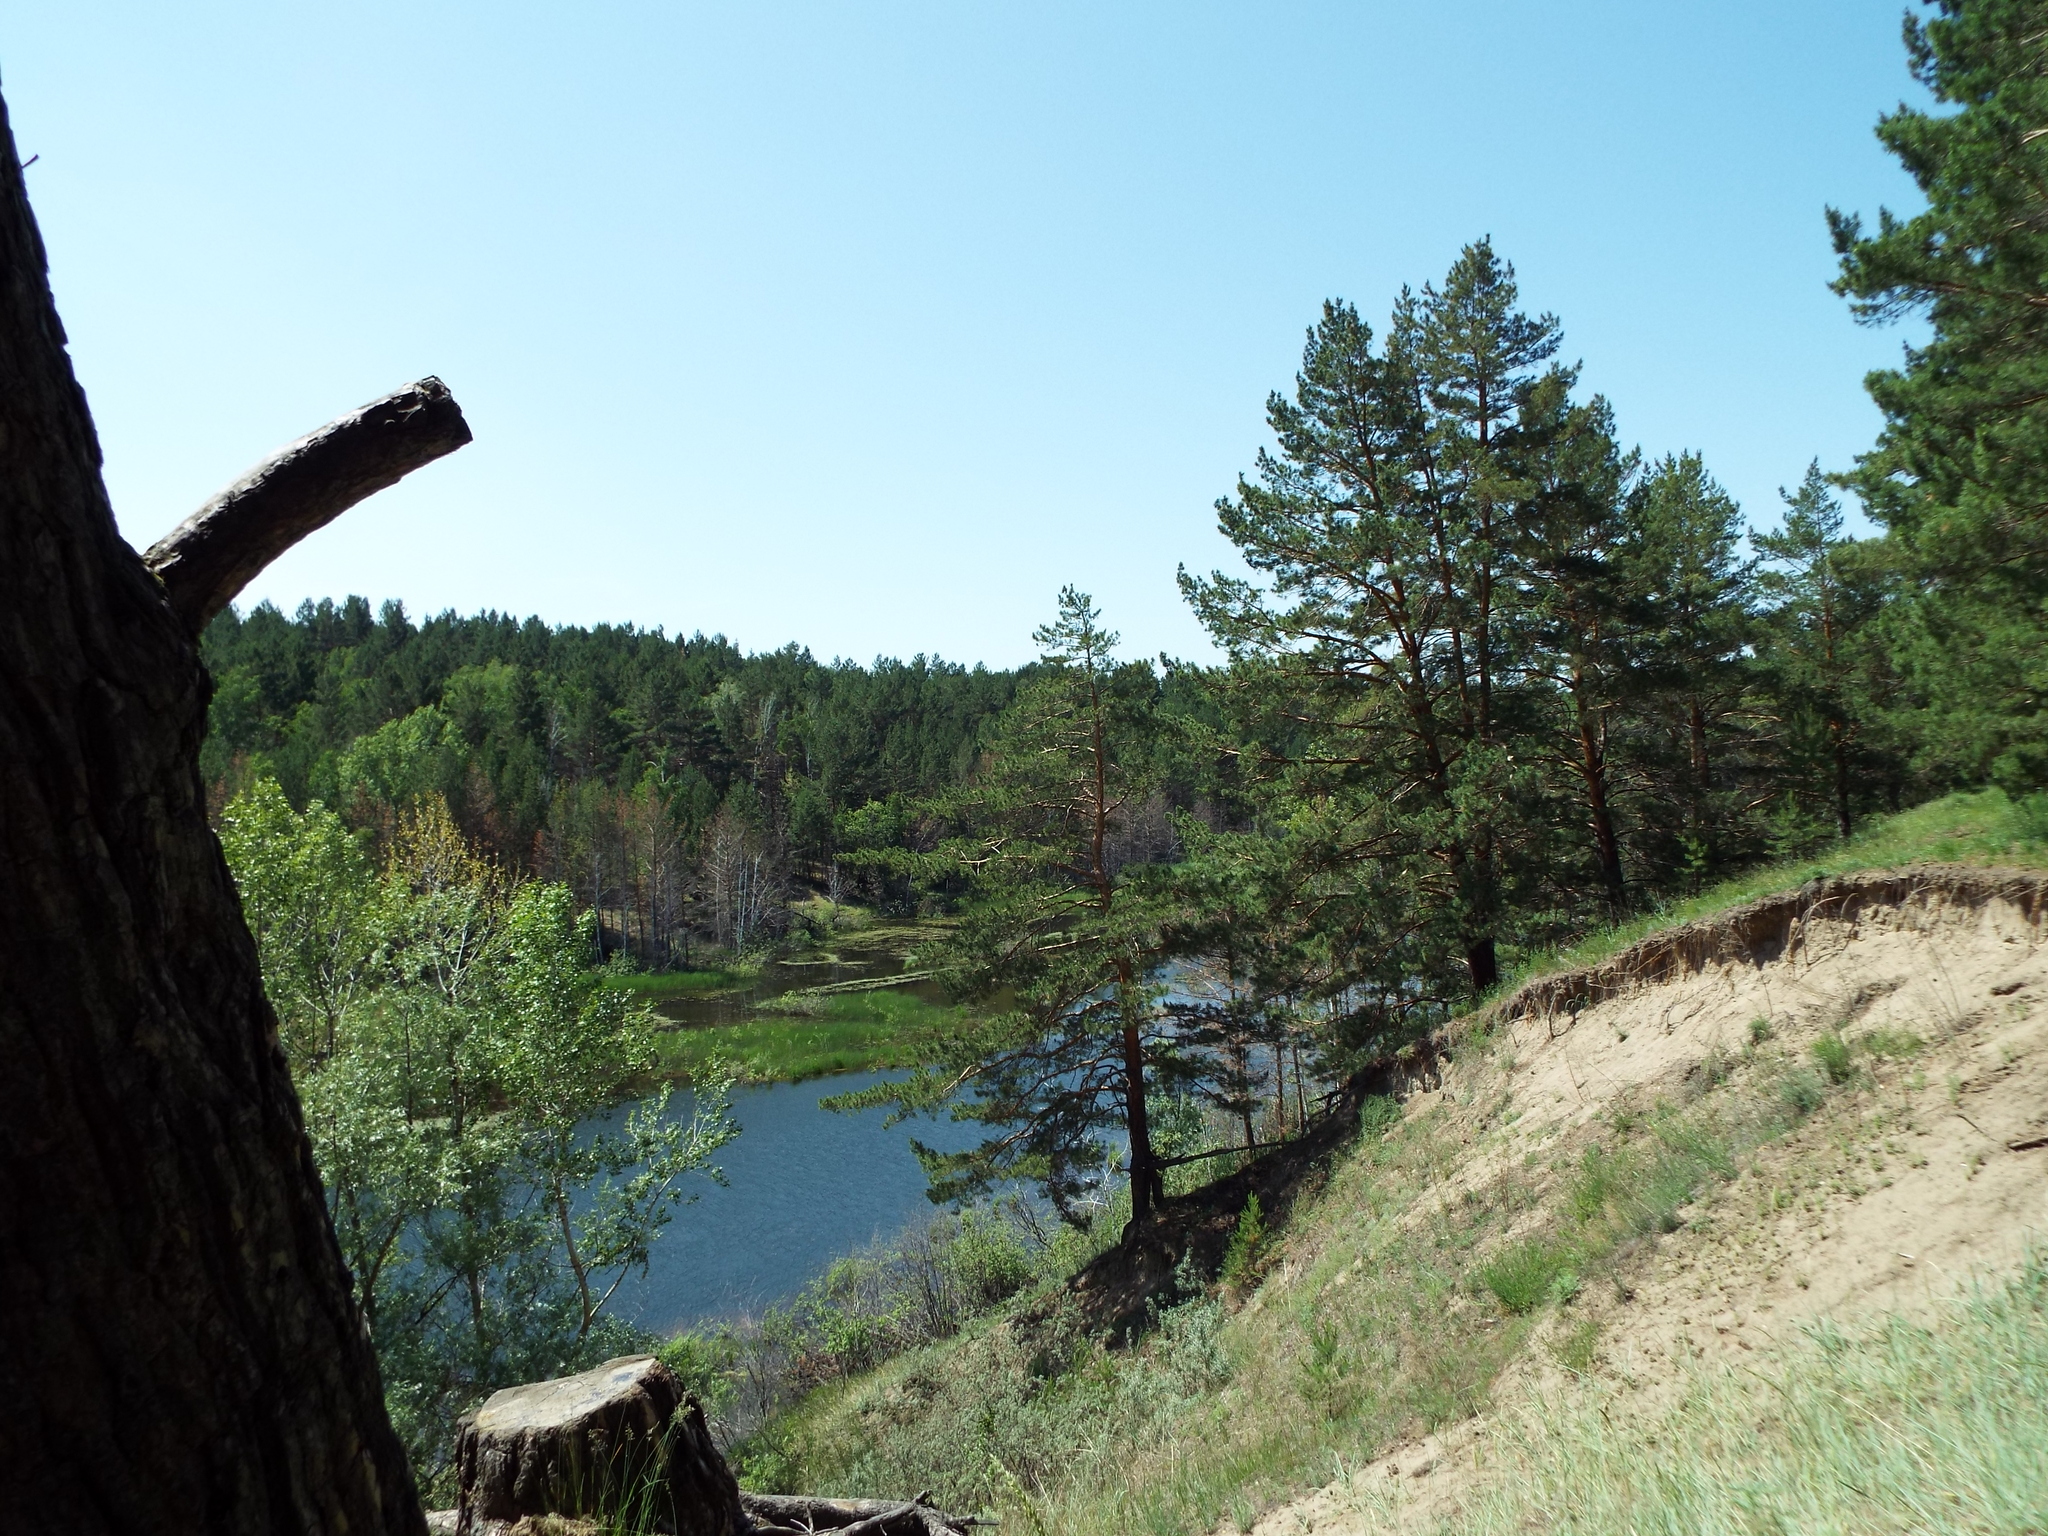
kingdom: Plantae
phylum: Tracheophyta
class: Pinopsida
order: Pinales
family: Pinaceae
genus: Pinus
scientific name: Pinus sylvestris
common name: Scots pine
